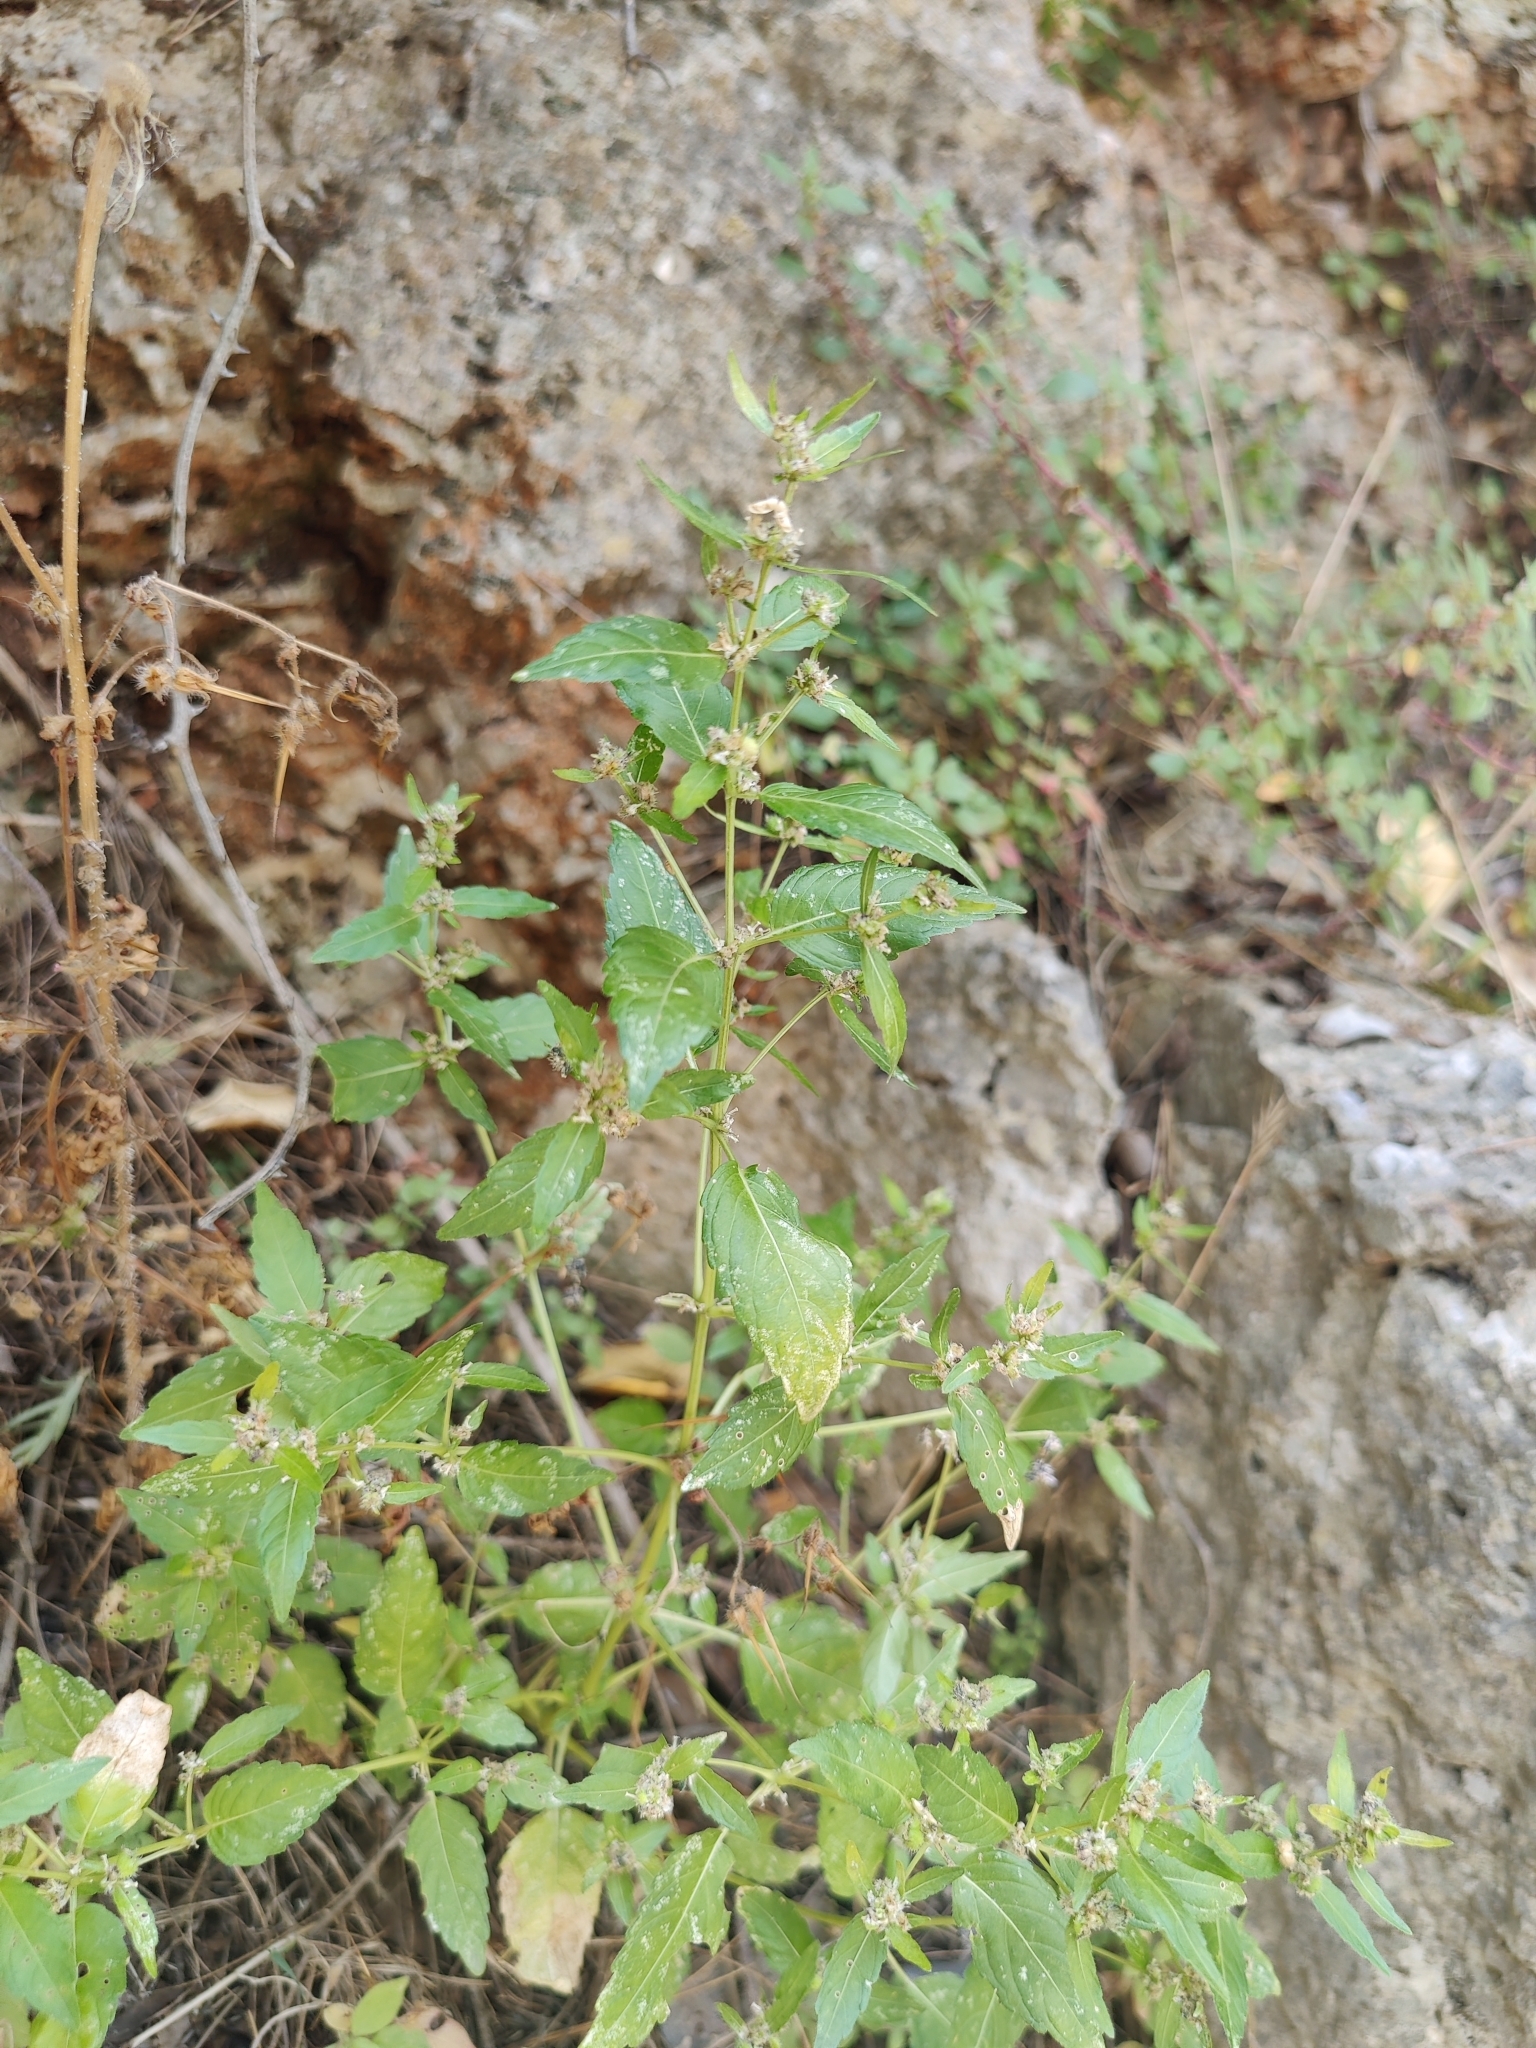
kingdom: Plantae
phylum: Tracheophyta
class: Magnoliopsida
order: Malpighiales
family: Euphorbiaceae
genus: Mercurialis
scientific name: Mercurialis annua
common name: Annual mercury
